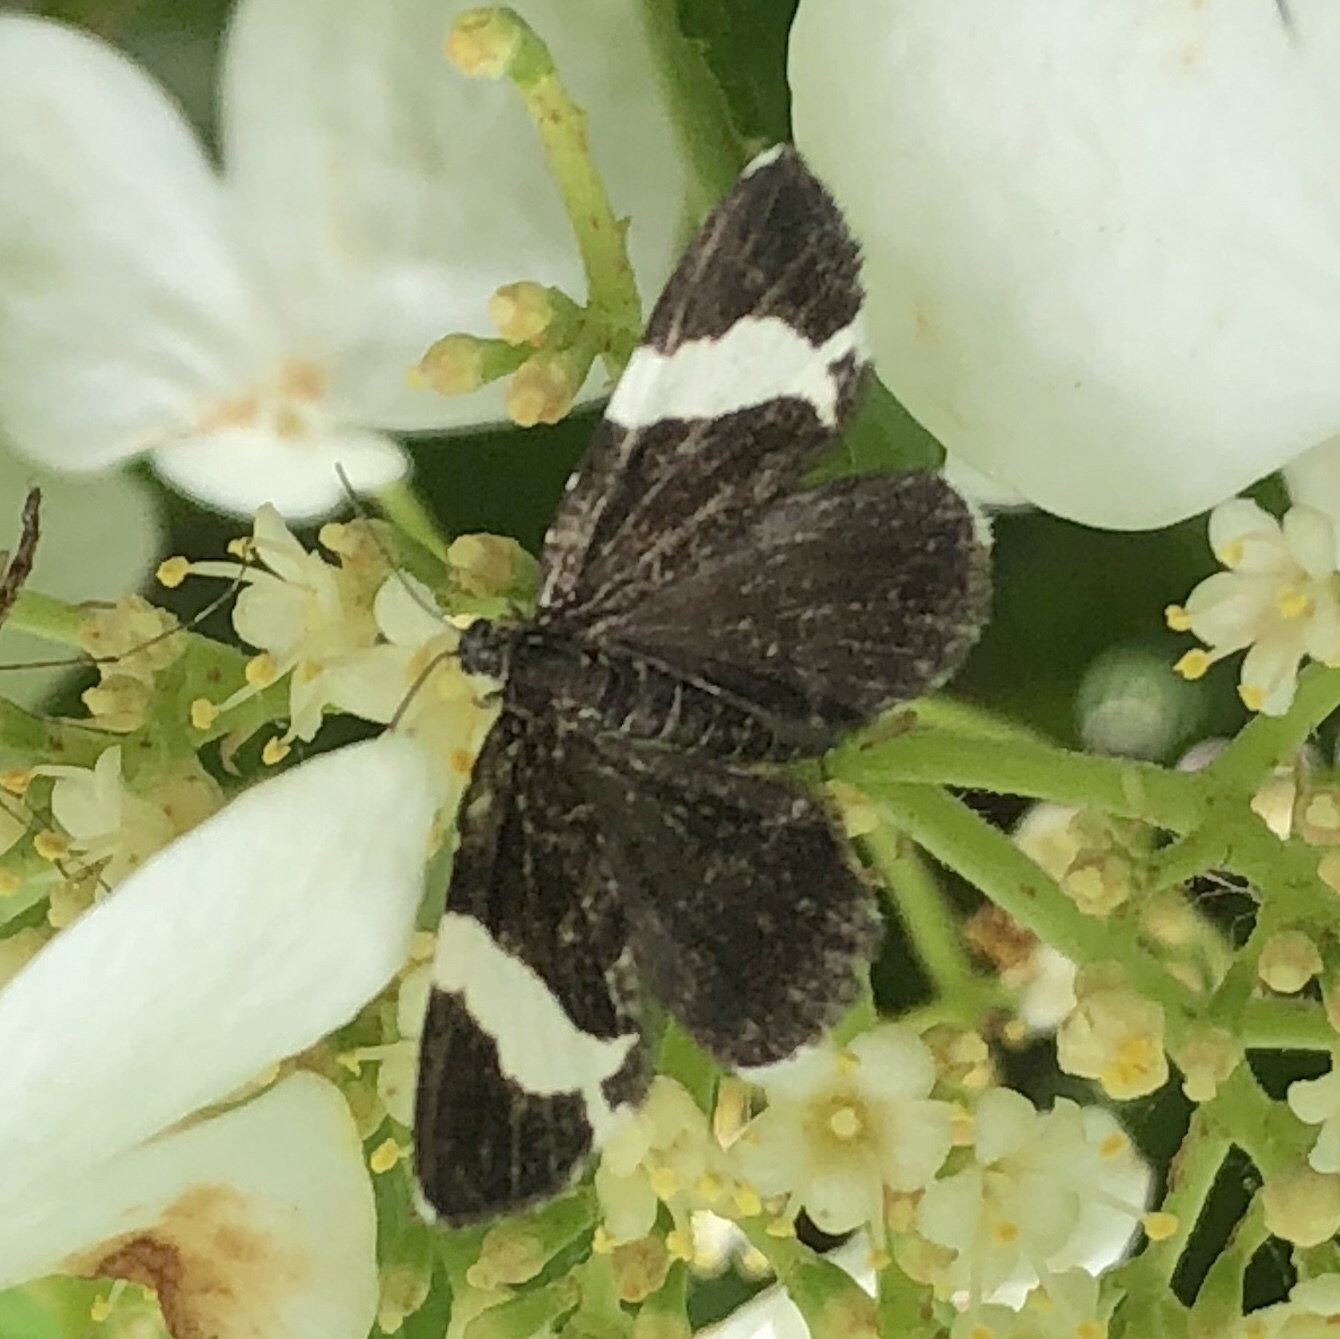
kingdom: Animalia
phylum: Arthropoda
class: Insecta
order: Lepidoptera
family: Geometridae
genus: Trichodezia
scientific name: Trichodezia albovittata
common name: White striped black
